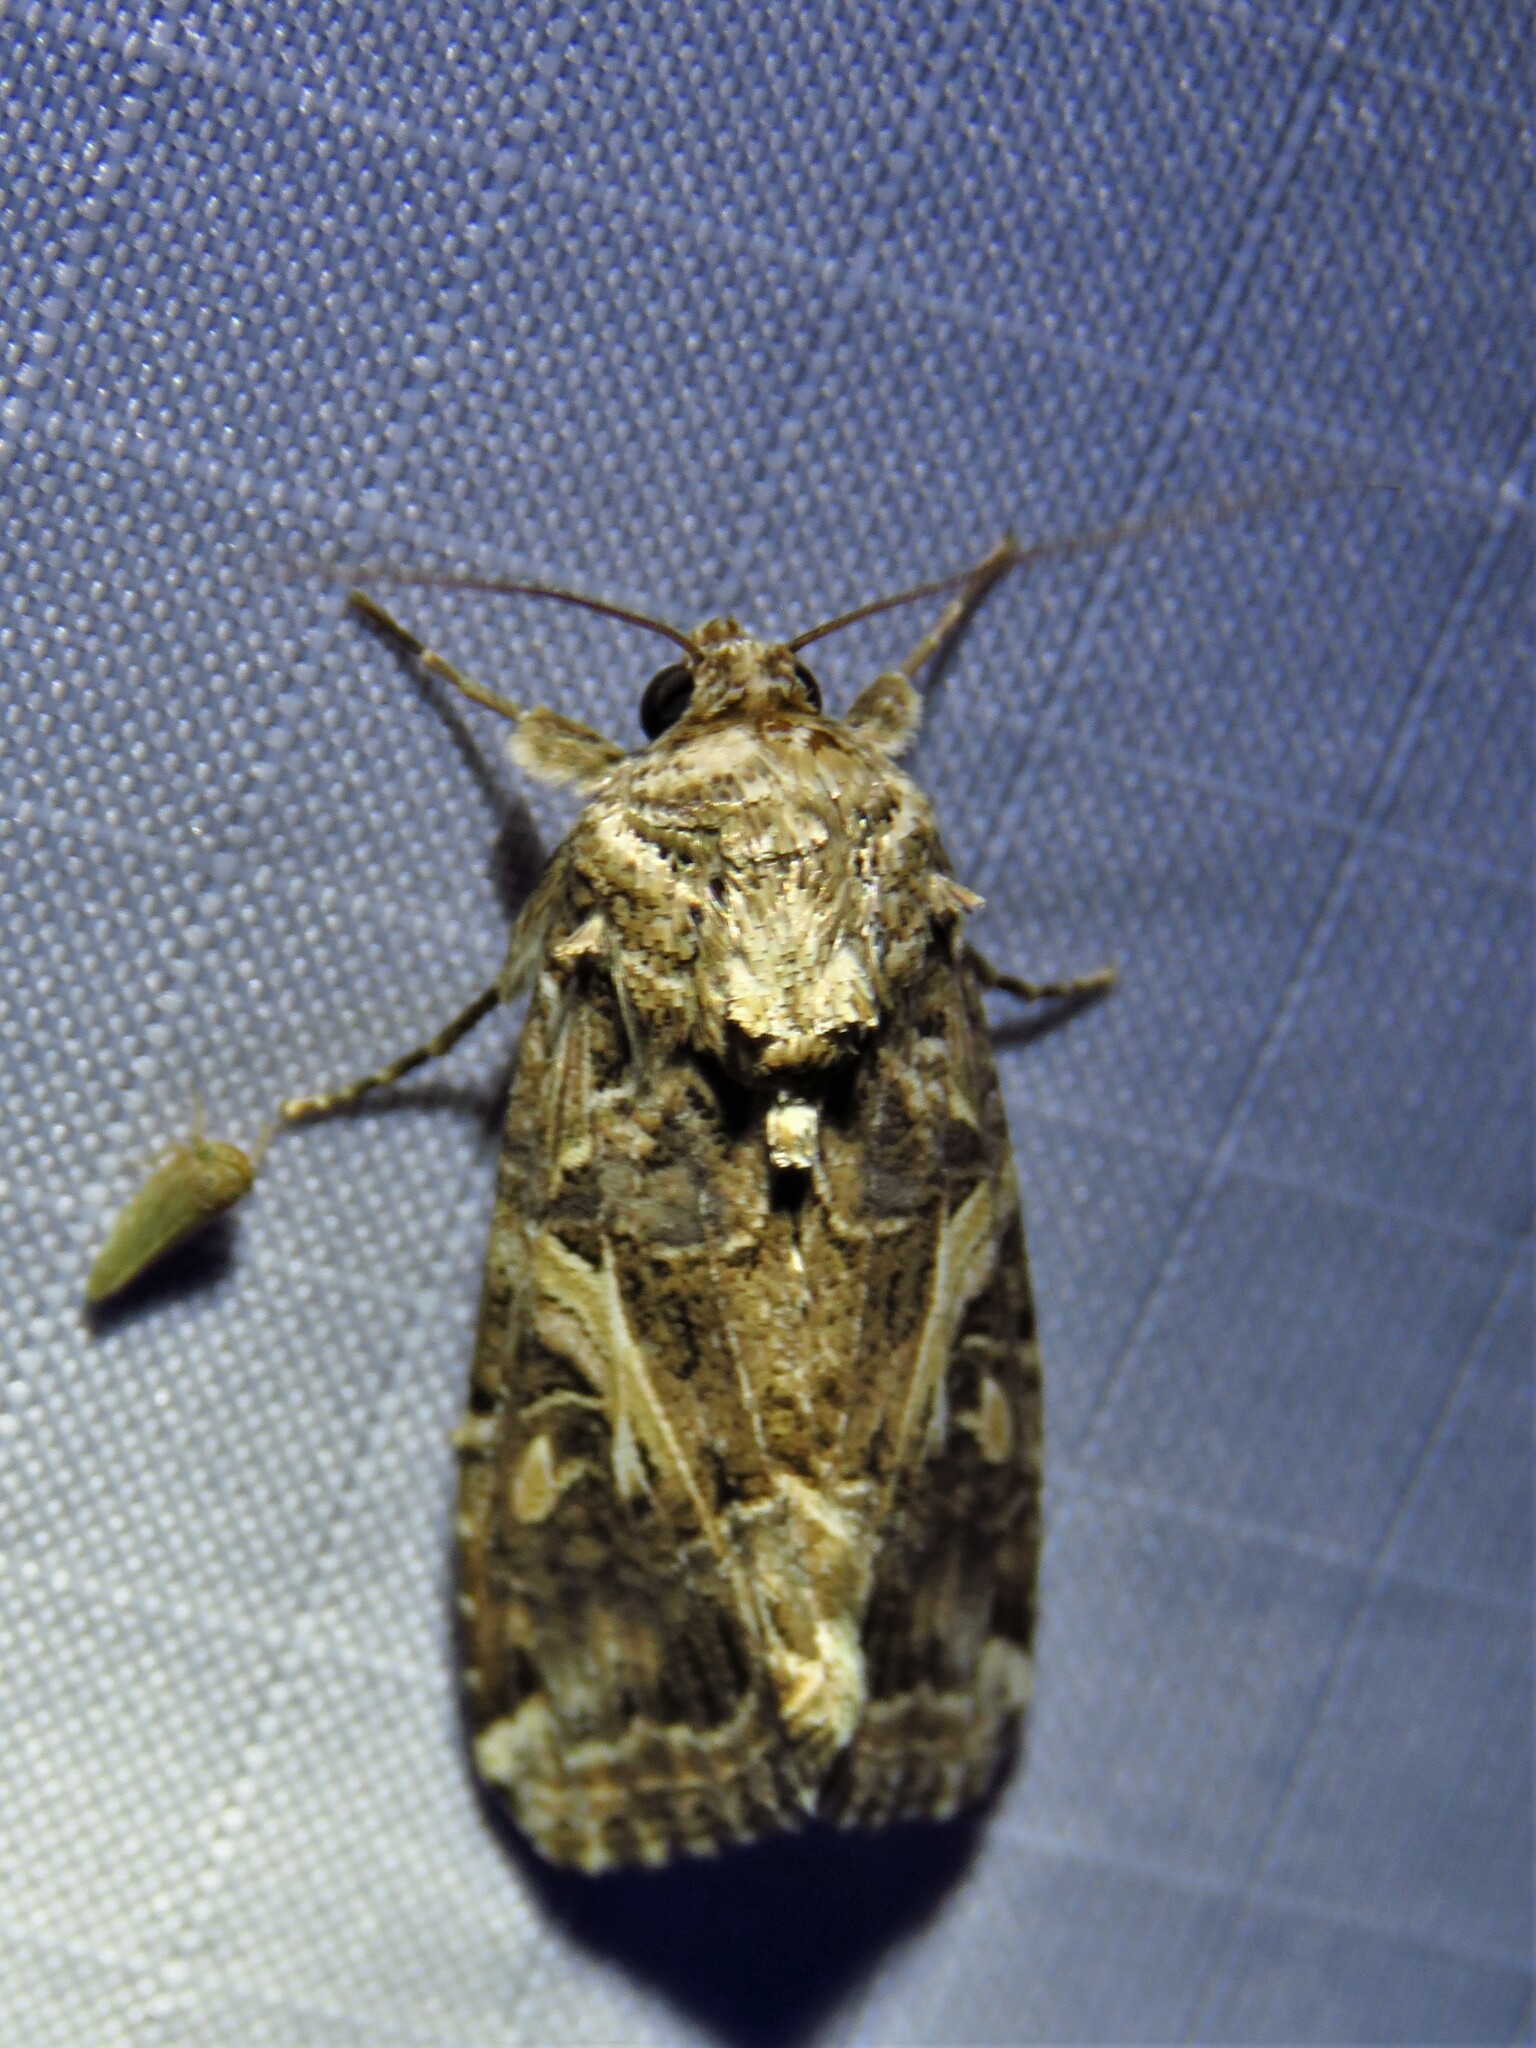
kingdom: Animalia
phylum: Arthropoda
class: Insecta
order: Lepidoptera
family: Noctuidae
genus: Spodoptera
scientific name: Spodoptera ornithogalli
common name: Yellow-striped armyworm
